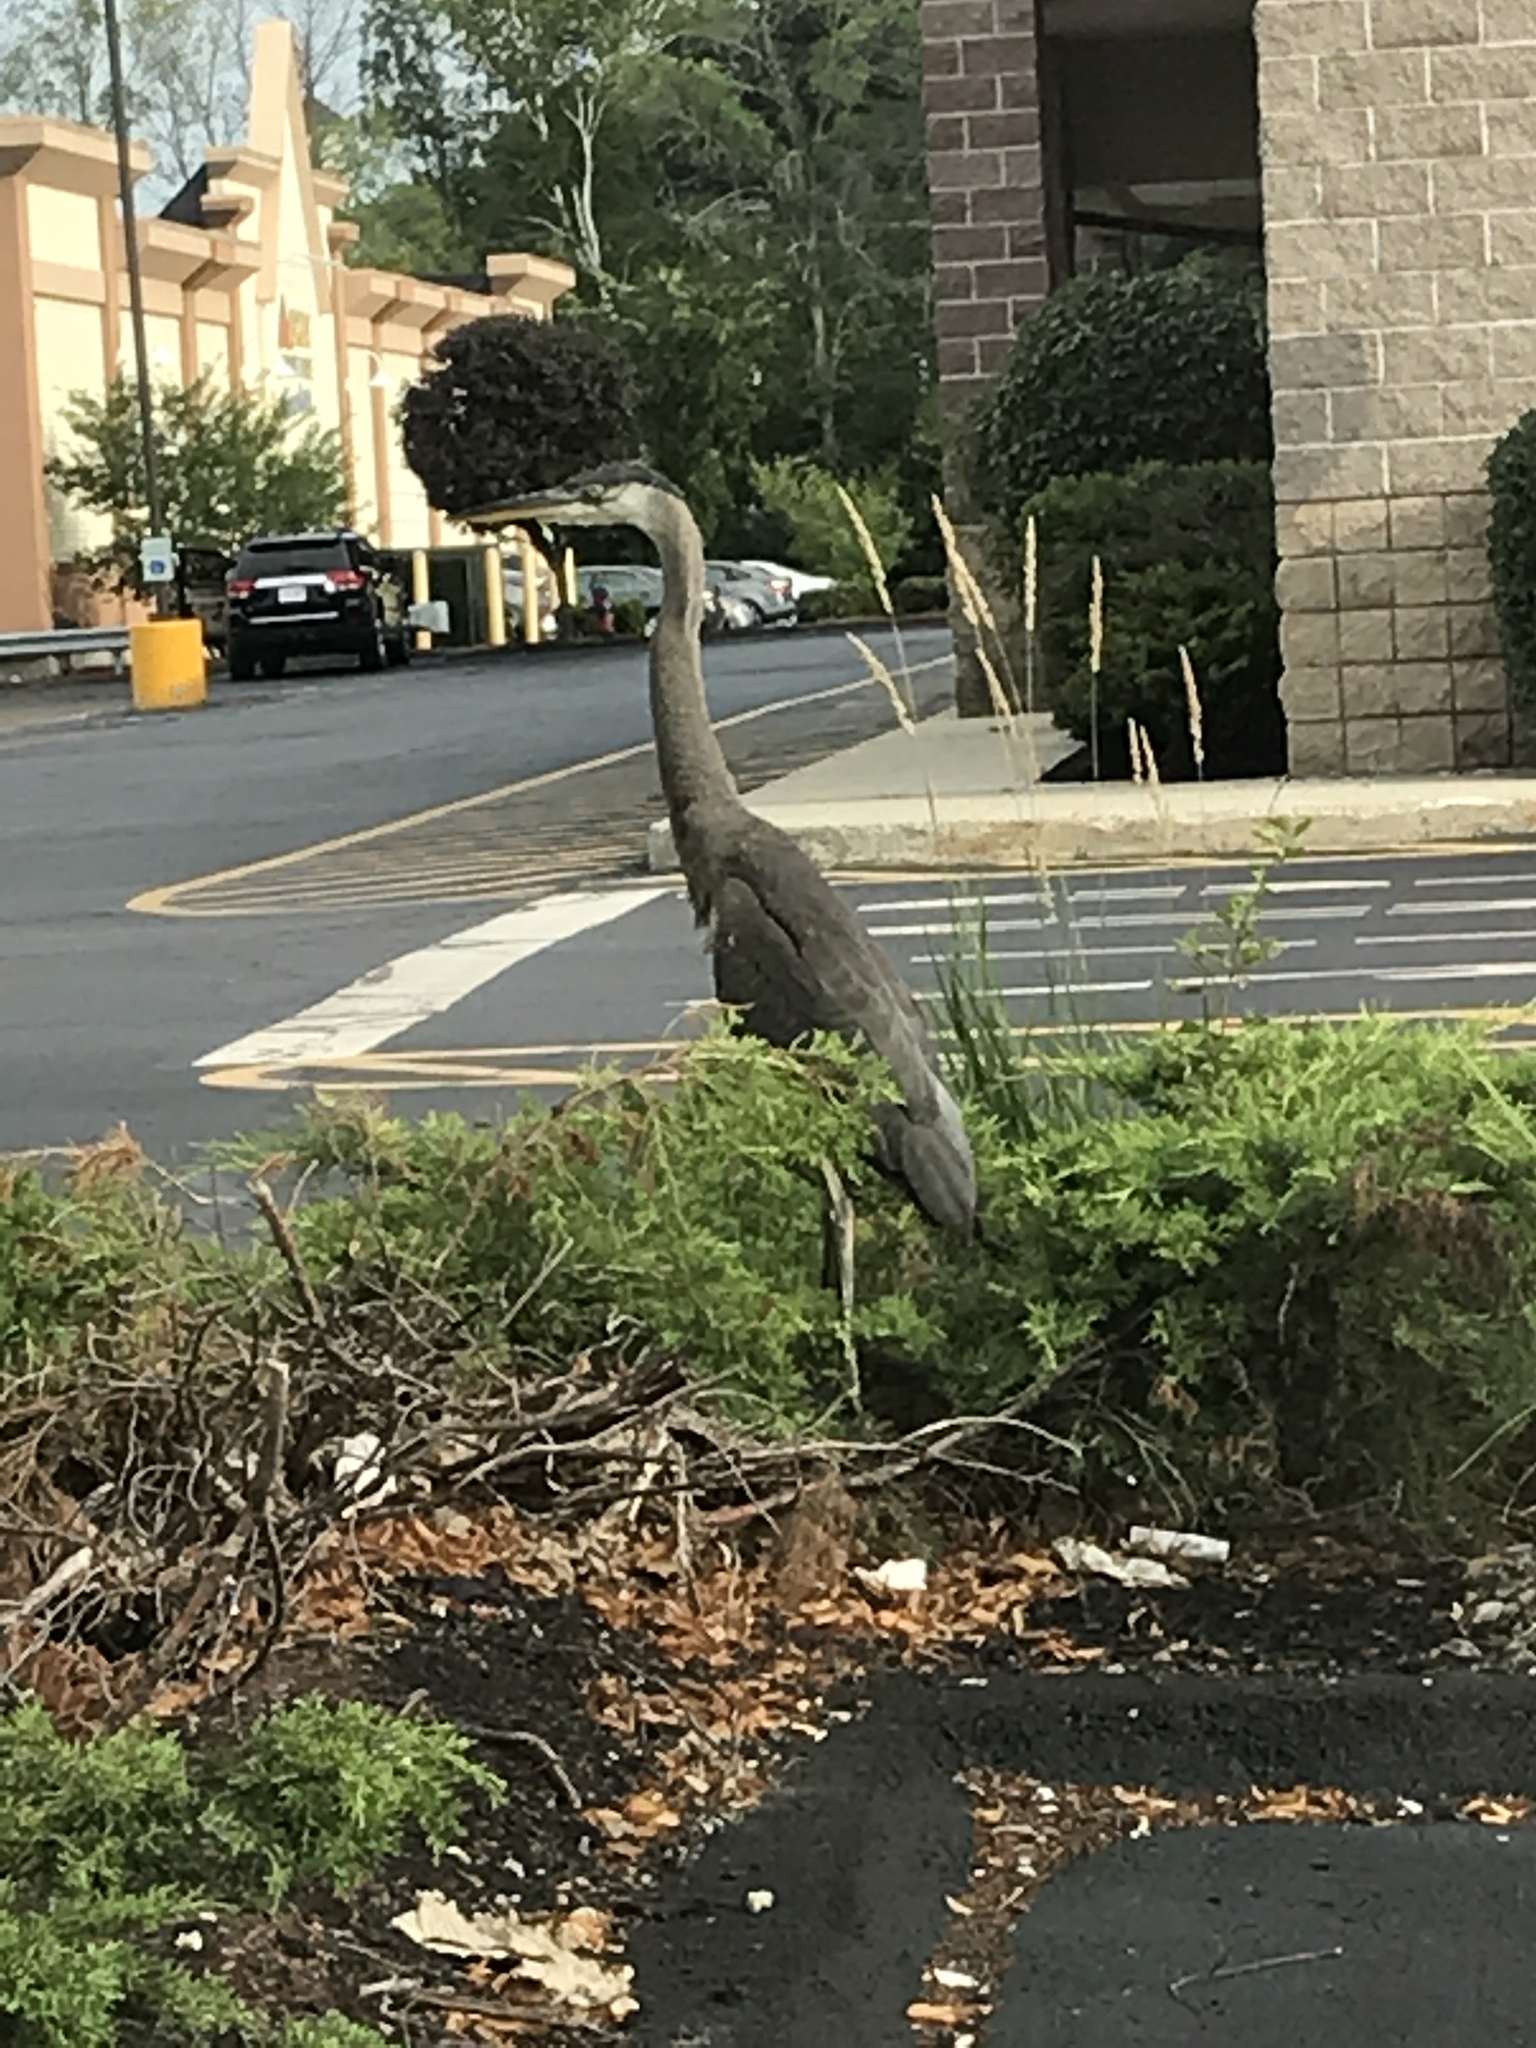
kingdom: Animalia
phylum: Chordata
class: Aves
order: Pelecaniformes
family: Ardeidae
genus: Ardea
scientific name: Ardea herodias
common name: Great blue heron
